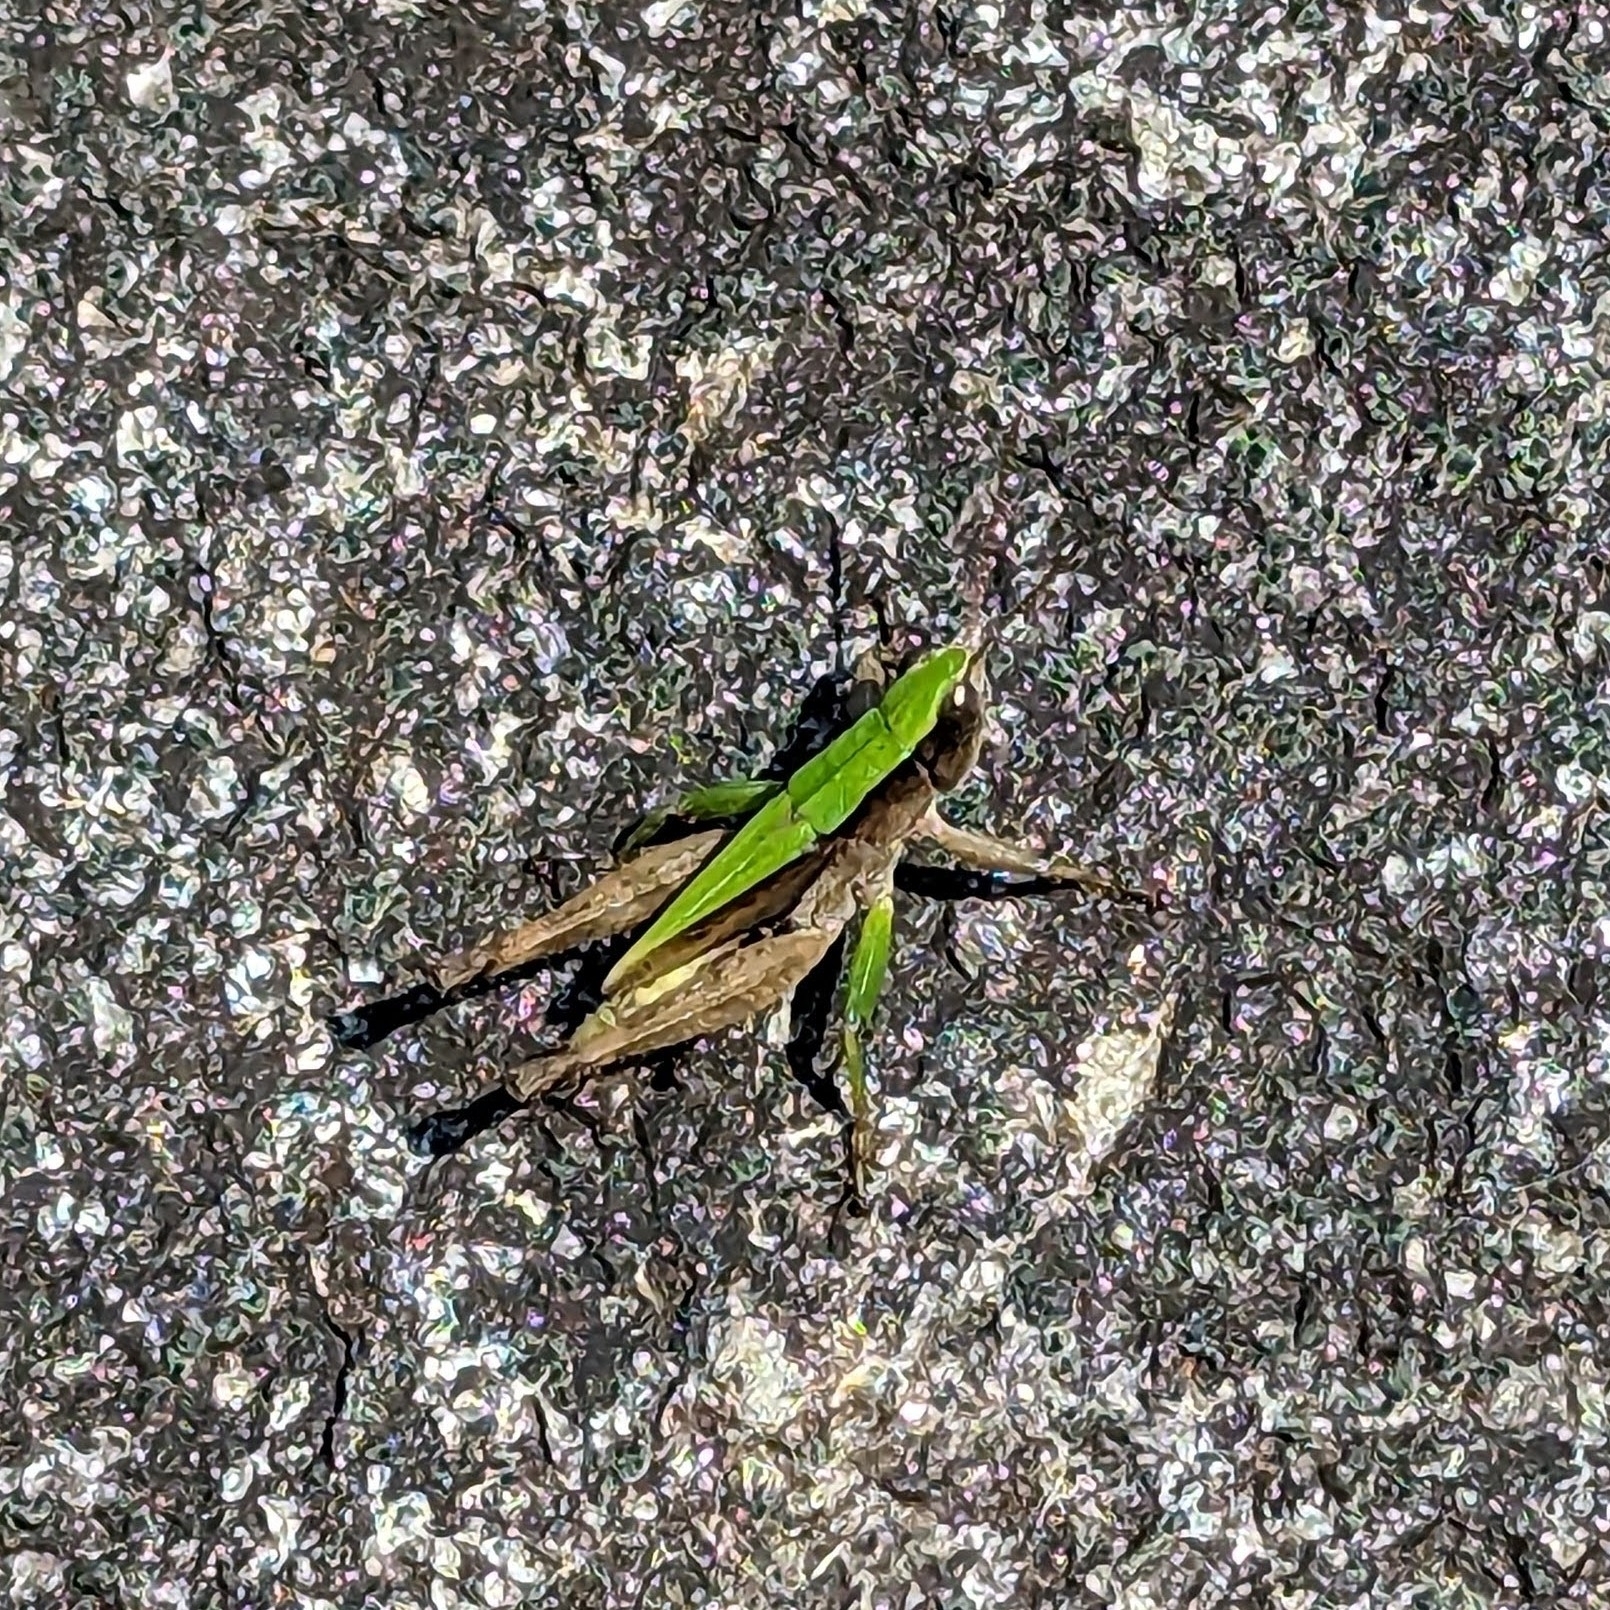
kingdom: Animalia
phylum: Arthropoda
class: Insecta
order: Orthoptera
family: Acrididae
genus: Dichromorpha
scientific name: Dichromorpha viridis
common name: Short-winged green grasshopper
